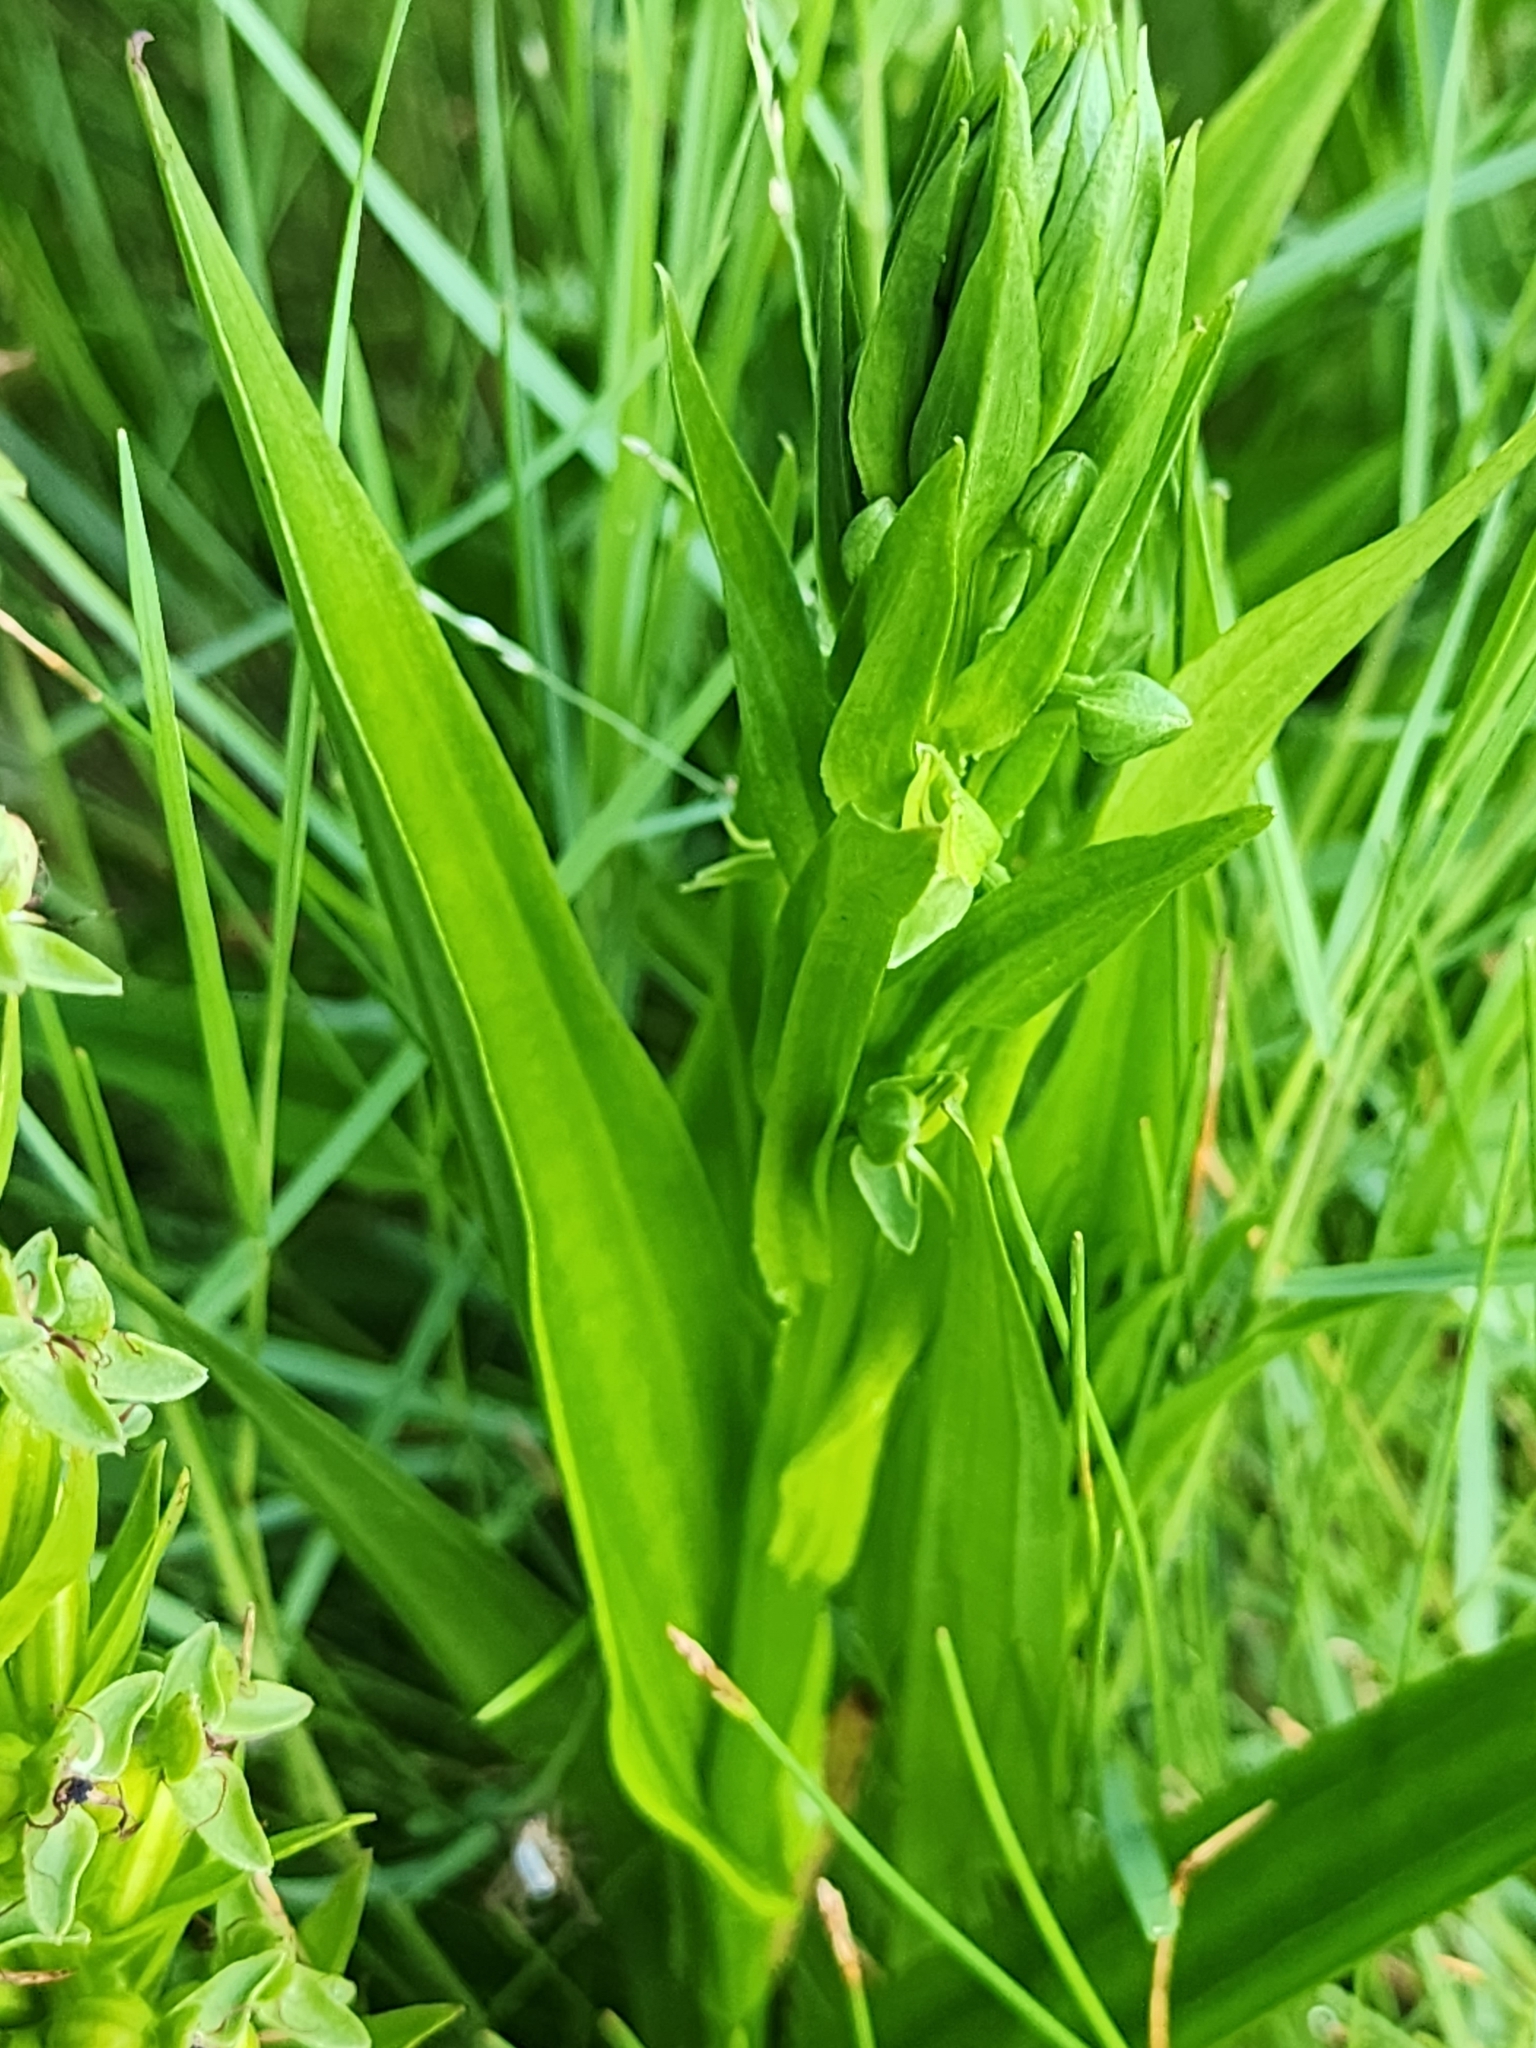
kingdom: Plantae
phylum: Tracheophyta
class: Liliopsida
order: Asparagales
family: Orchidaceae
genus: Habenaria
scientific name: Habenaria repens
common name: Water orchid
